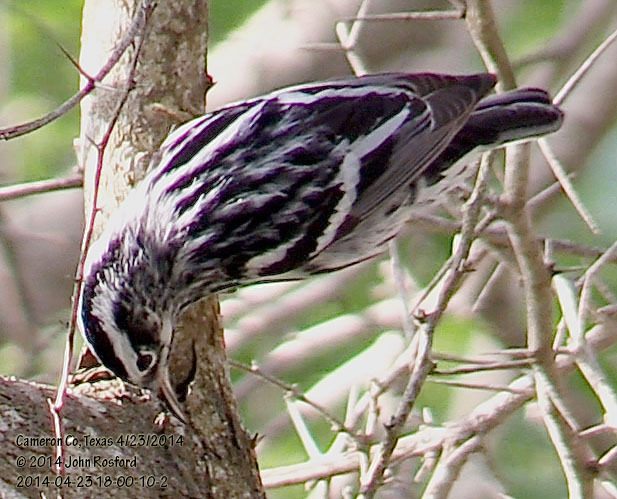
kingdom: Animalia
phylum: Chordata
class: Aves
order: Passeriformes
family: Parulidae
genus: Mniotilta
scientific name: Mniotilta varia
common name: Black-and-white warbler
